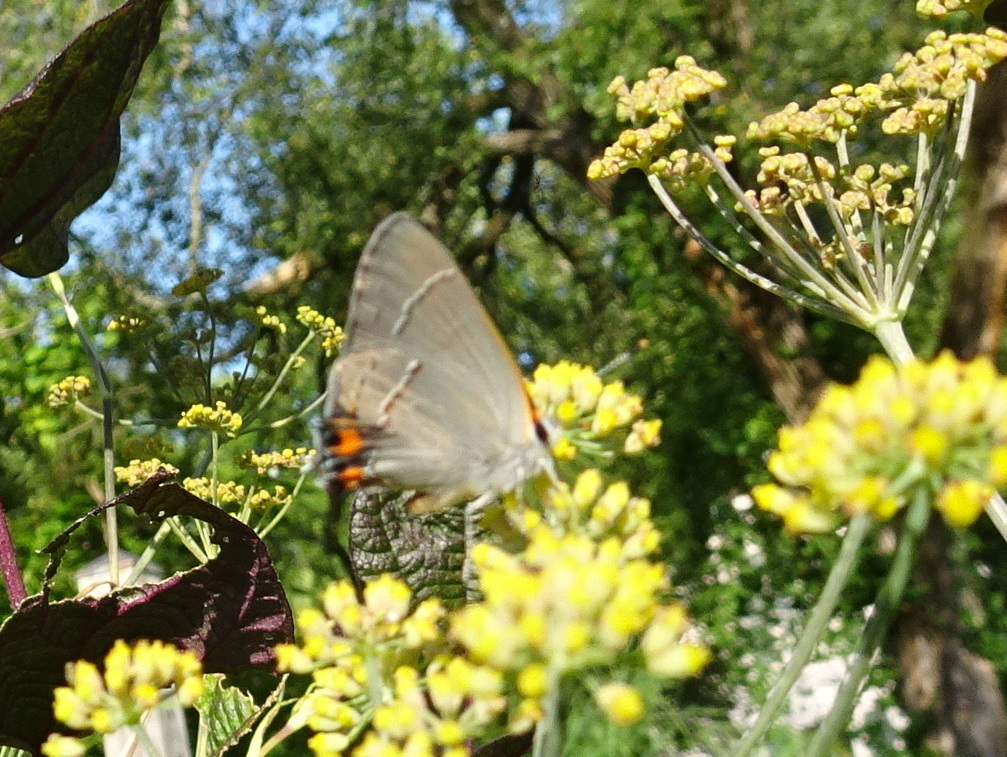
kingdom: Animalia
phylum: Arthropoda
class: Insecta
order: Lepidoptera
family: Lycaenidae
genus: Strymon
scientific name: Strymon melinus
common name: Gray hairstreak
